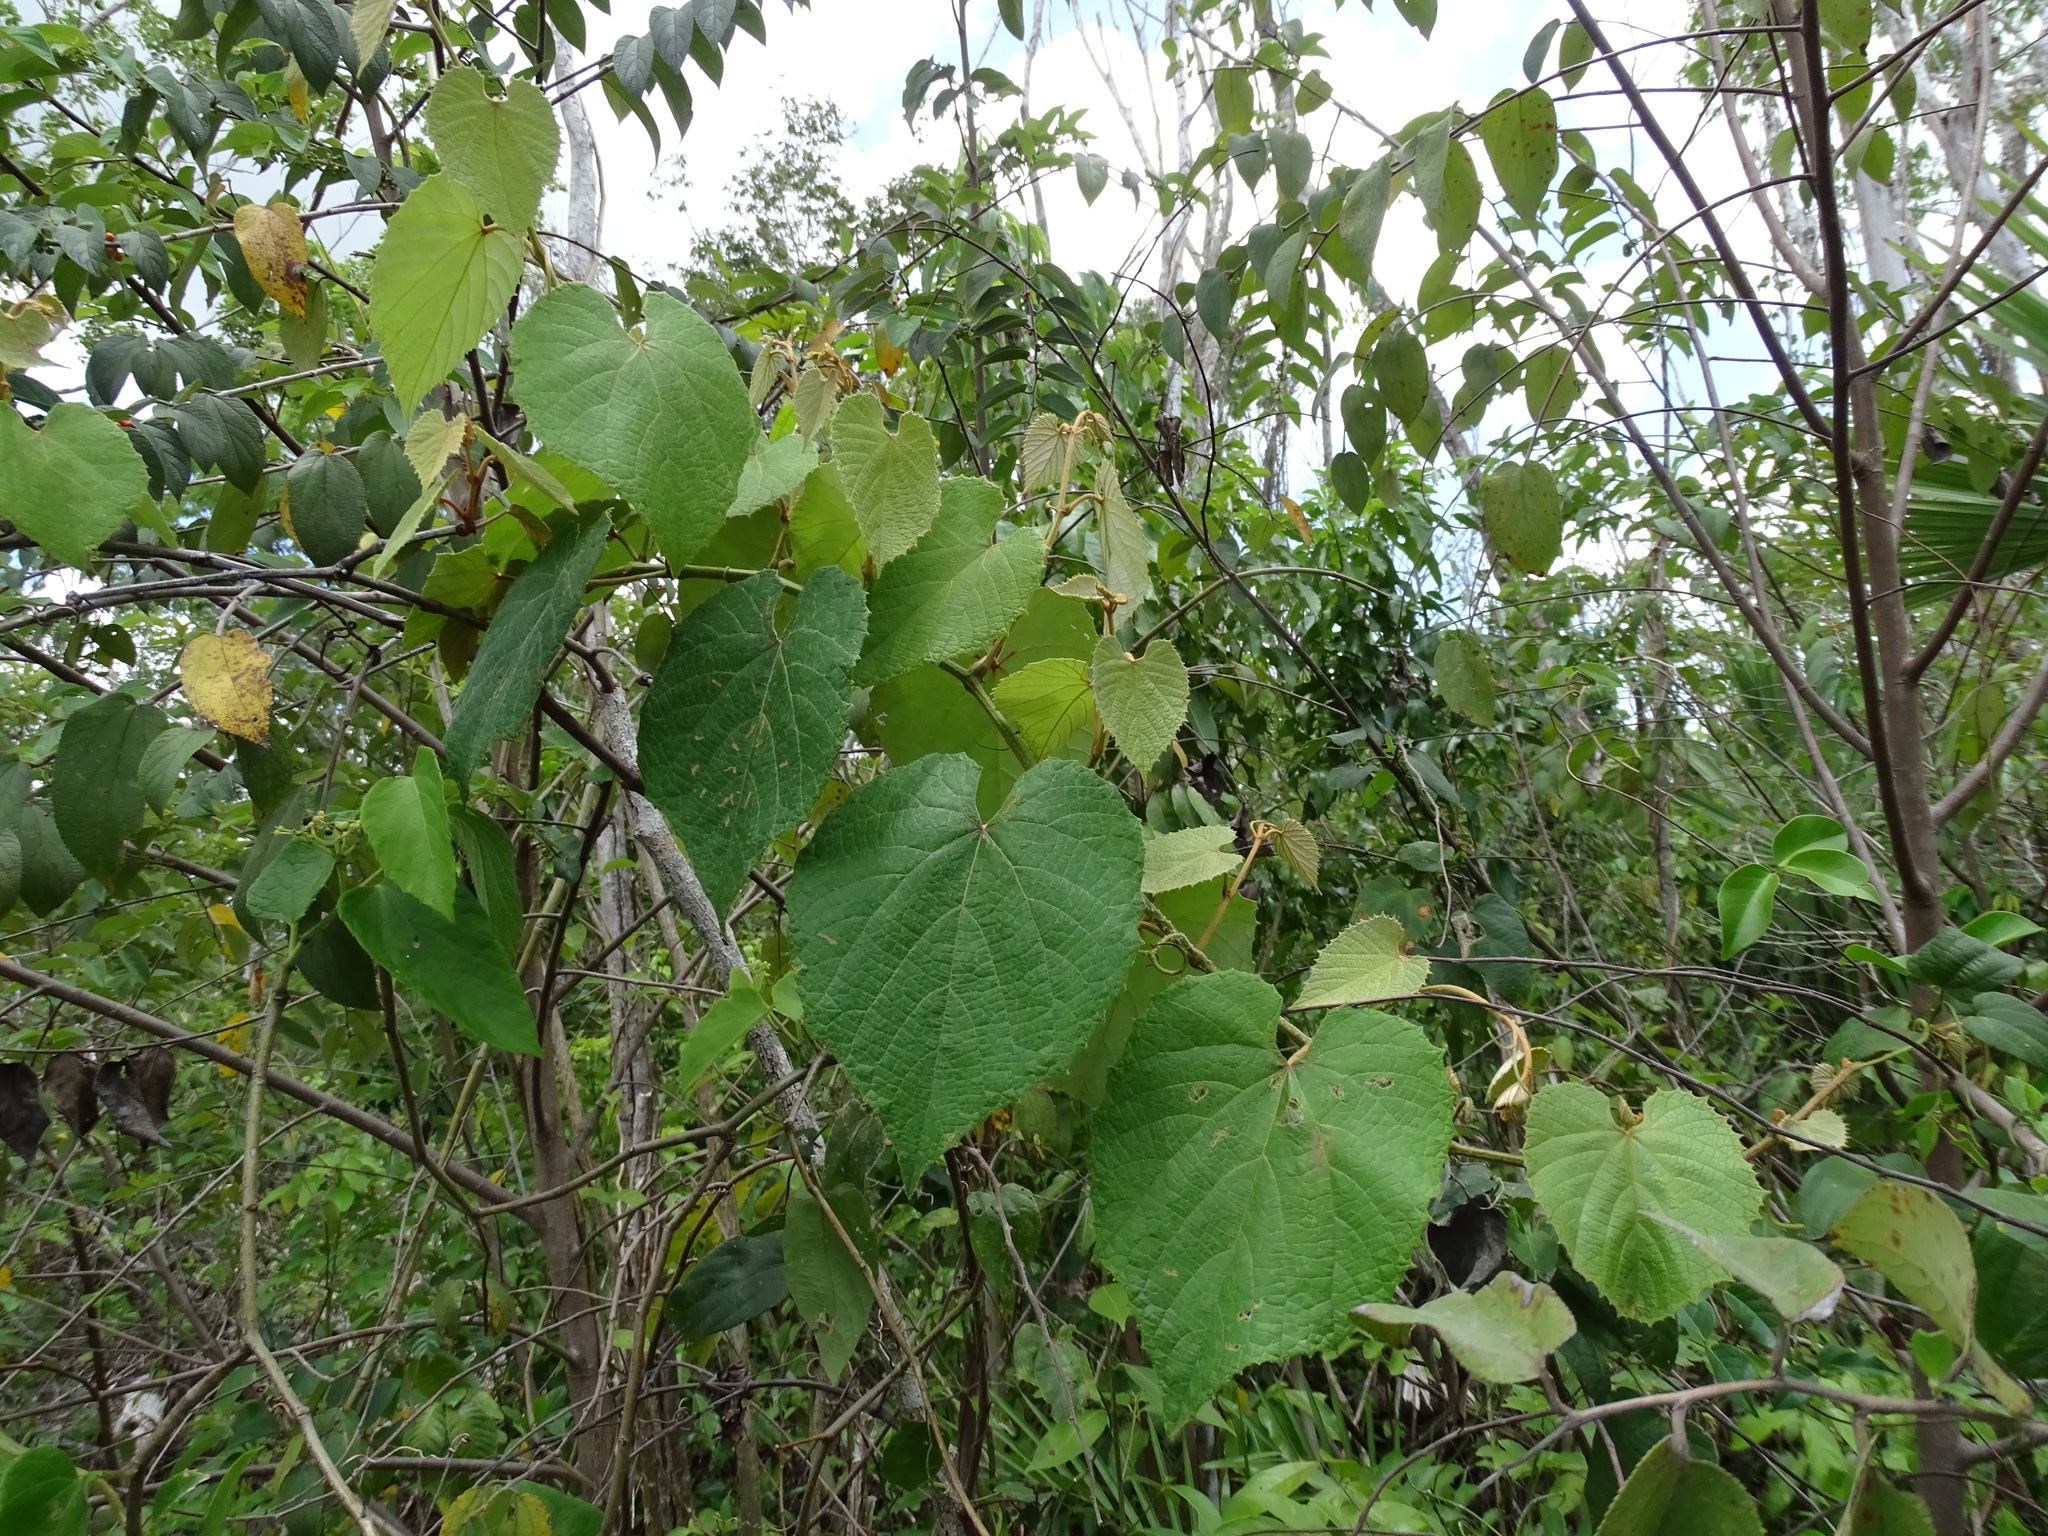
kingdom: Plantae
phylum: Tracheophyta
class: Magnoliopsida
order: Vitales
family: Vitaceae
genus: Vitis
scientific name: Vitis tiliifolia
